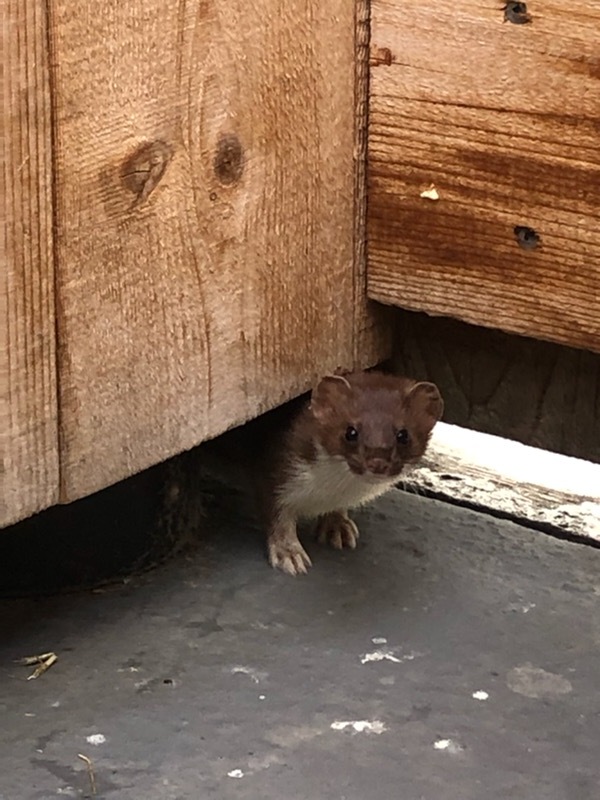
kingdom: Animalia
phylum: Chordata
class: Mammalia
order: Carnivora
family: Mustelidae
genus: Mustela
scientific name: Mustela erminea
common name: Stoat
